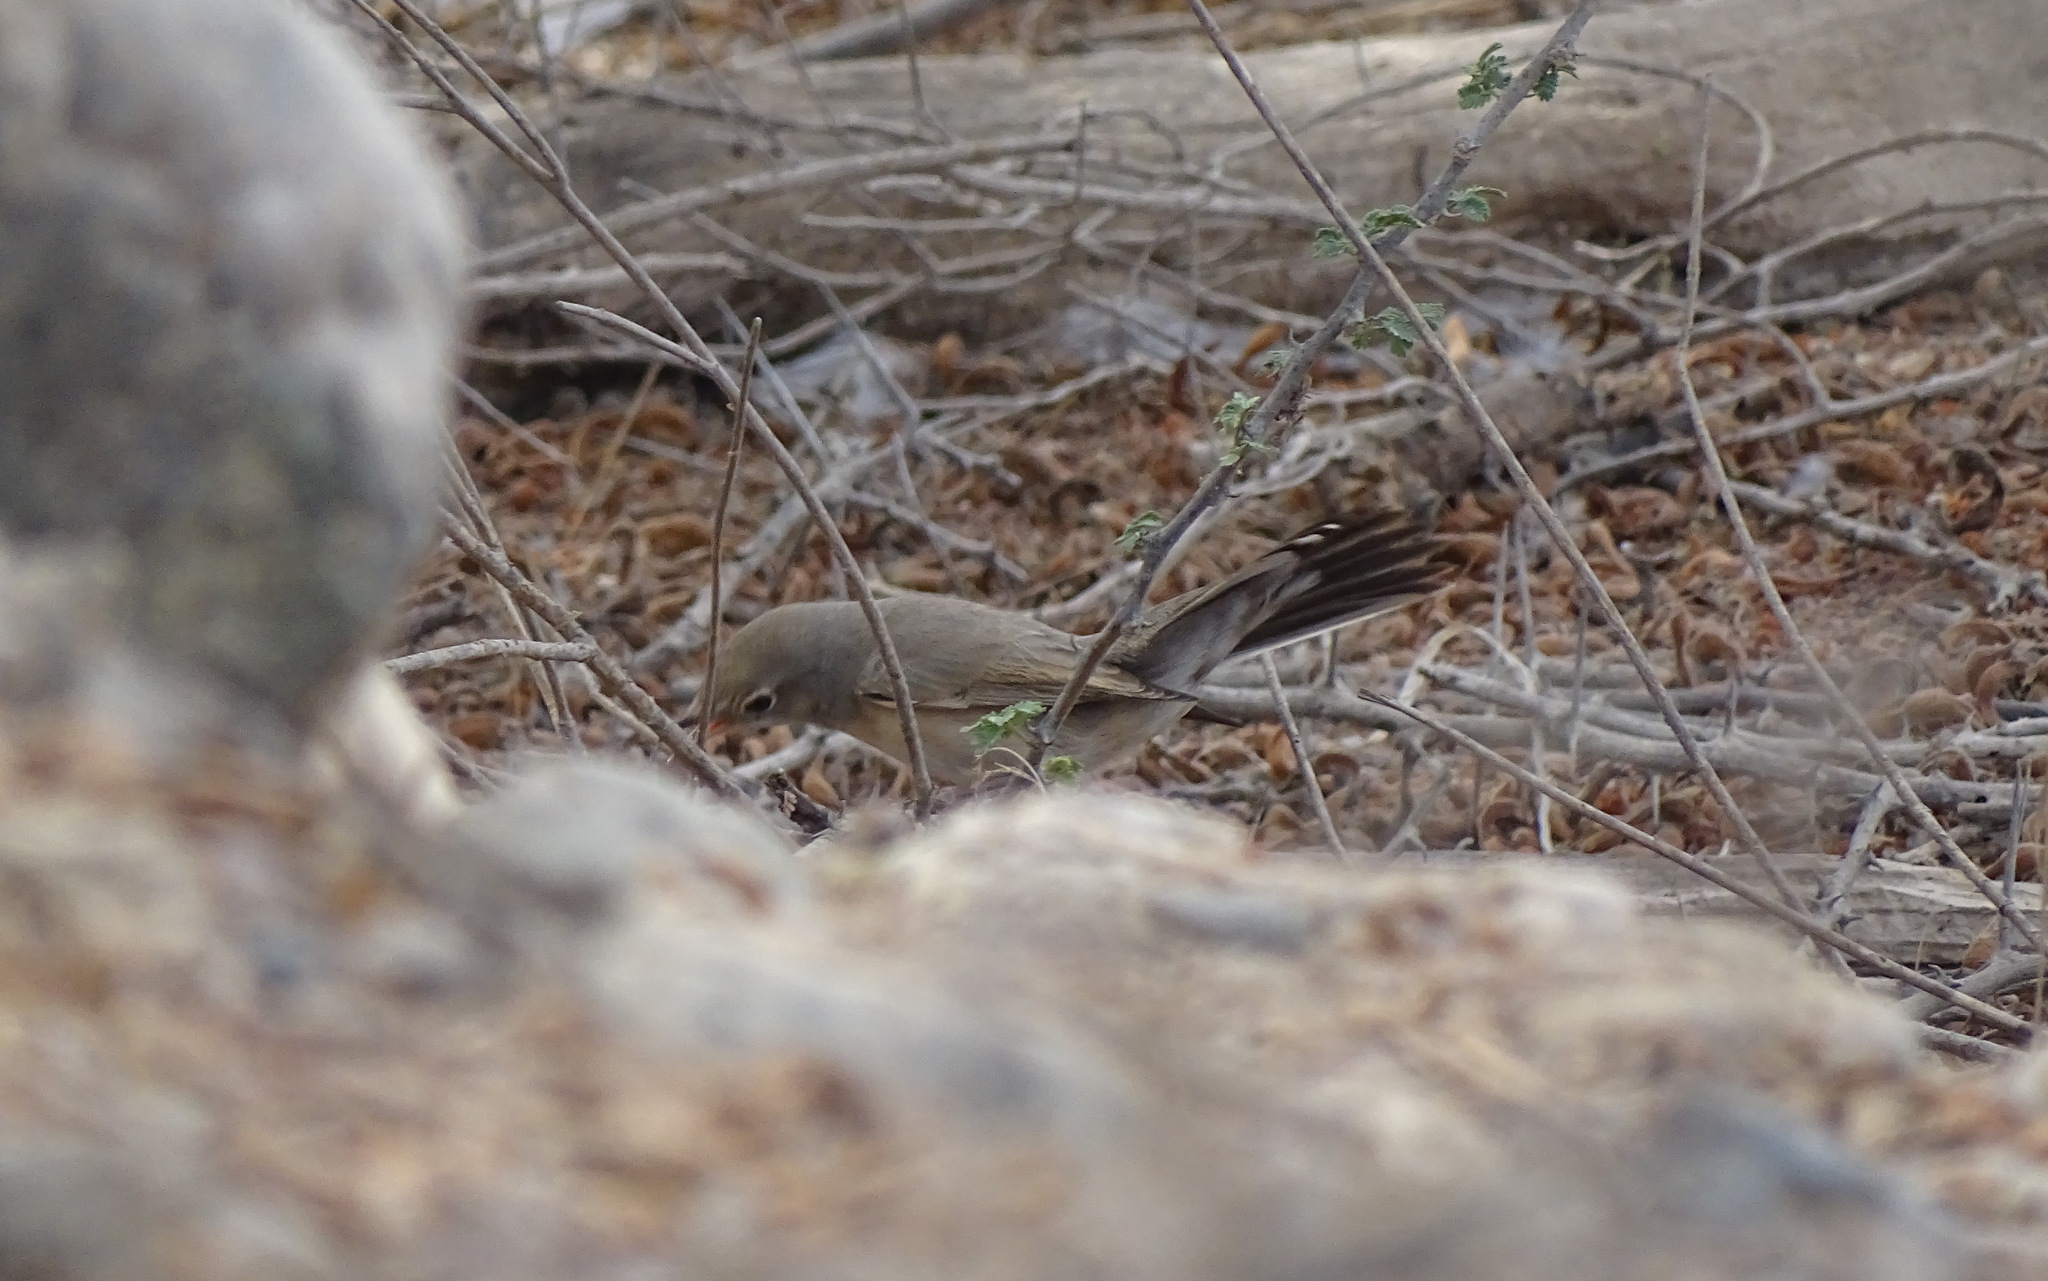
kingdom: Animalia
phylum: Chordata
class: Aves
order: Passeriformes
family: Sylviidae
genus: Sylvia
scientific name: Sylvia mystacea
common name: Menetries's warbler
